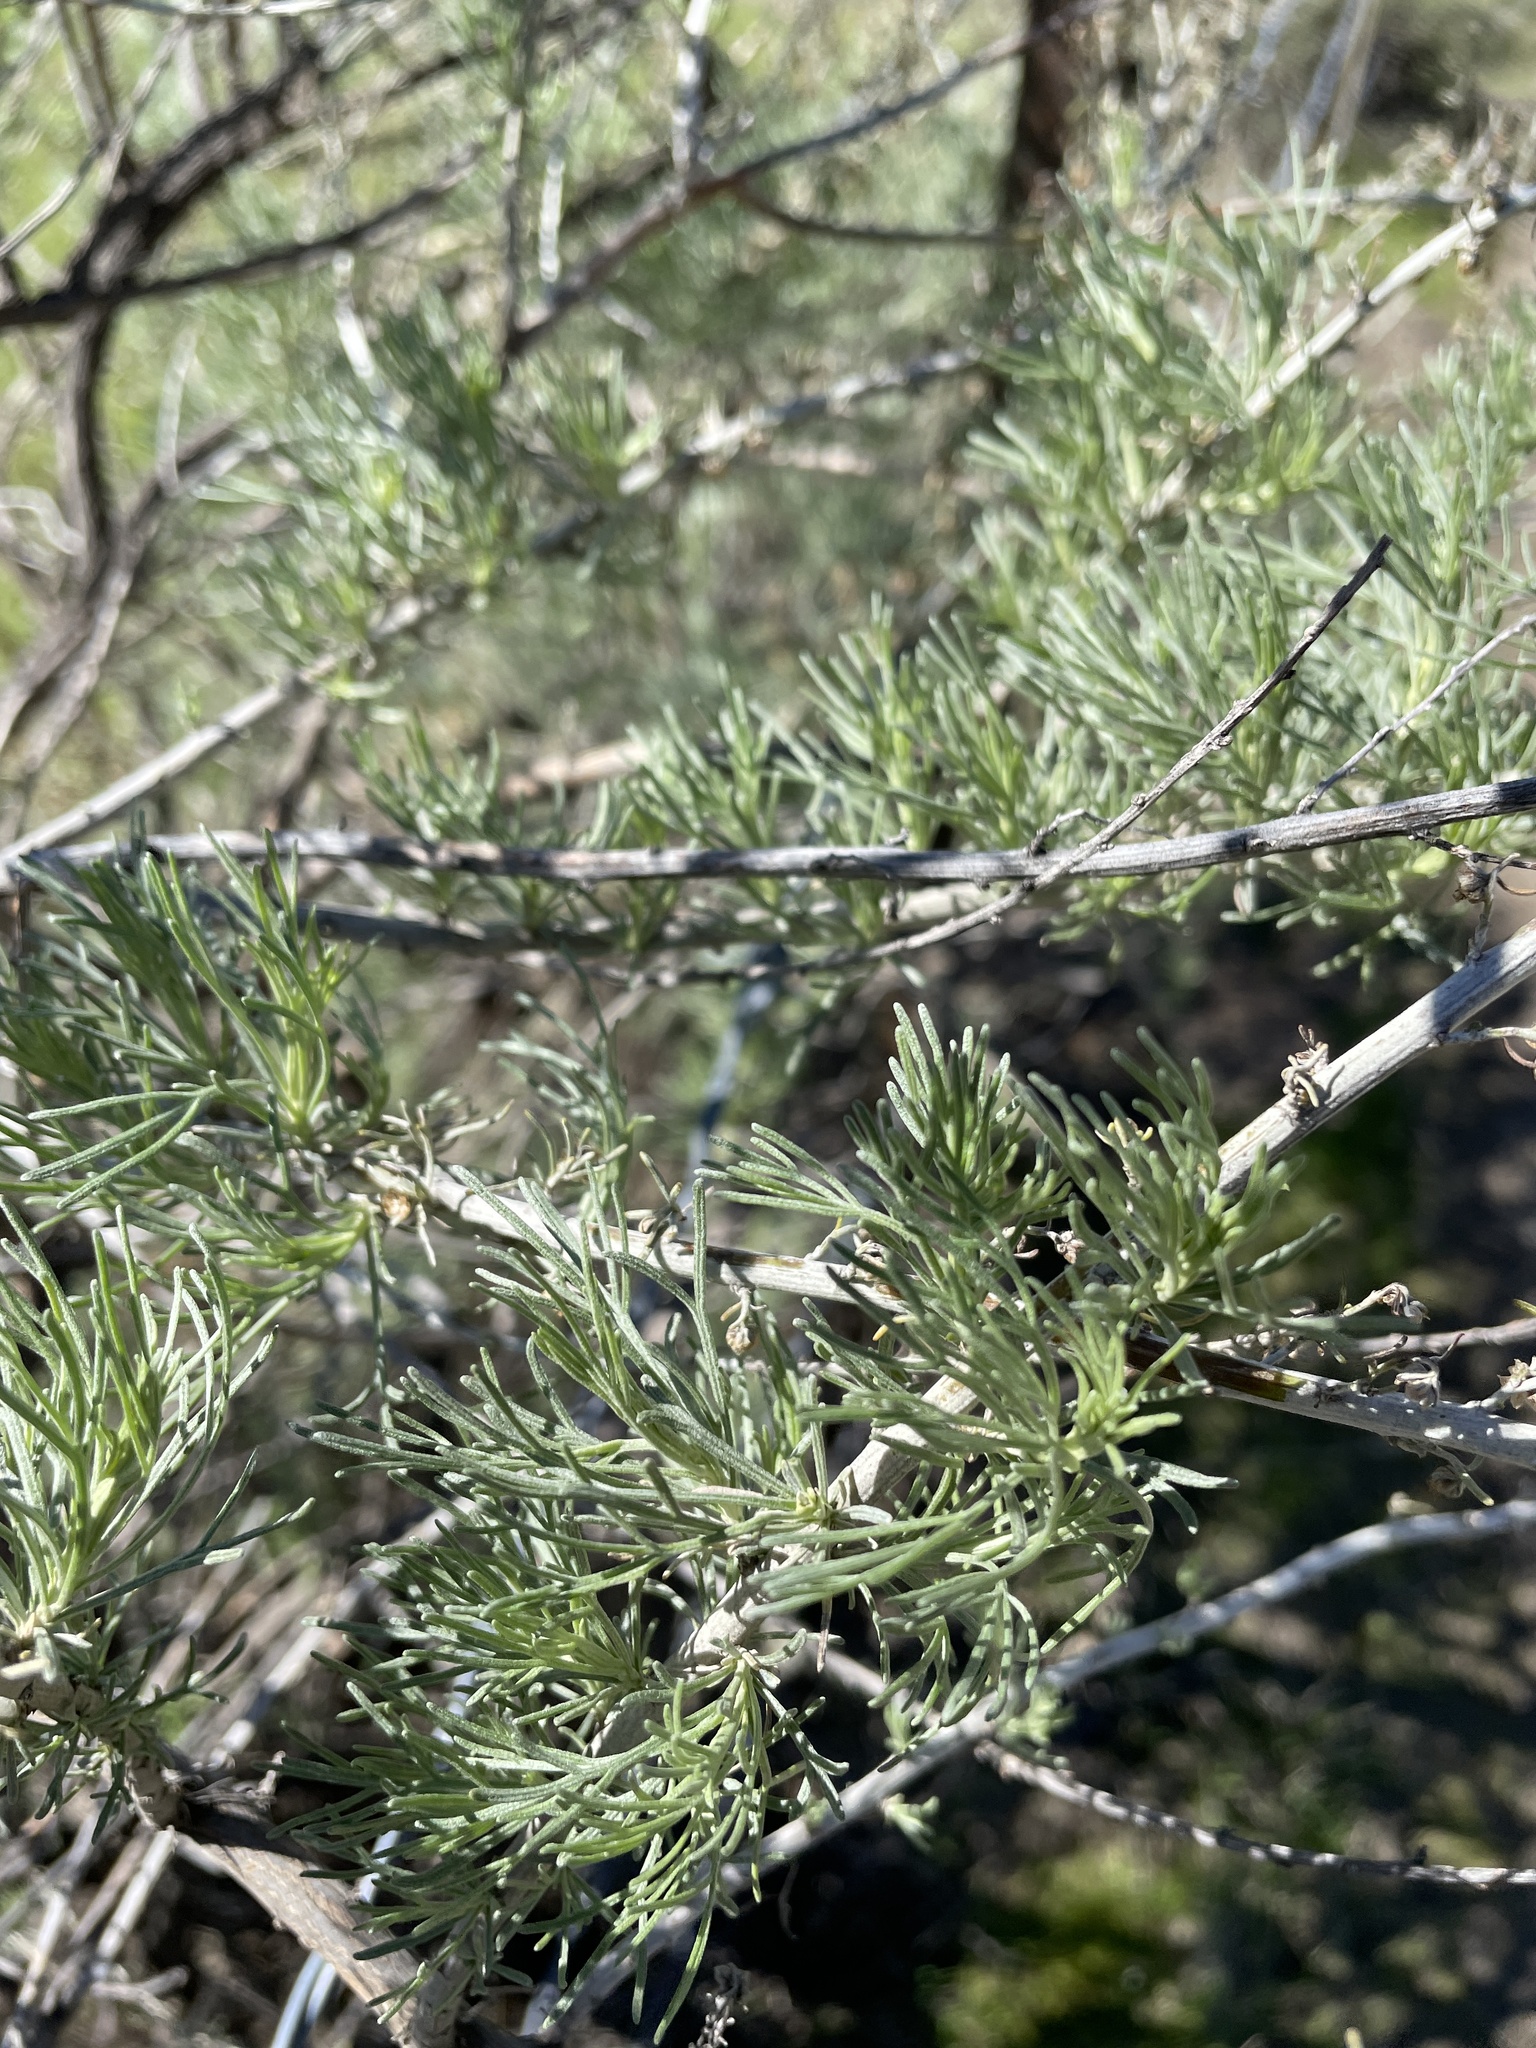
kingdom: Plantae
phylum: Tracheophyta
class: Magnoliopsida
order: Asterales
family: Asteraceae
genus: Artemisia
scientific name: Artemisia californica
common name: California sagebrush
